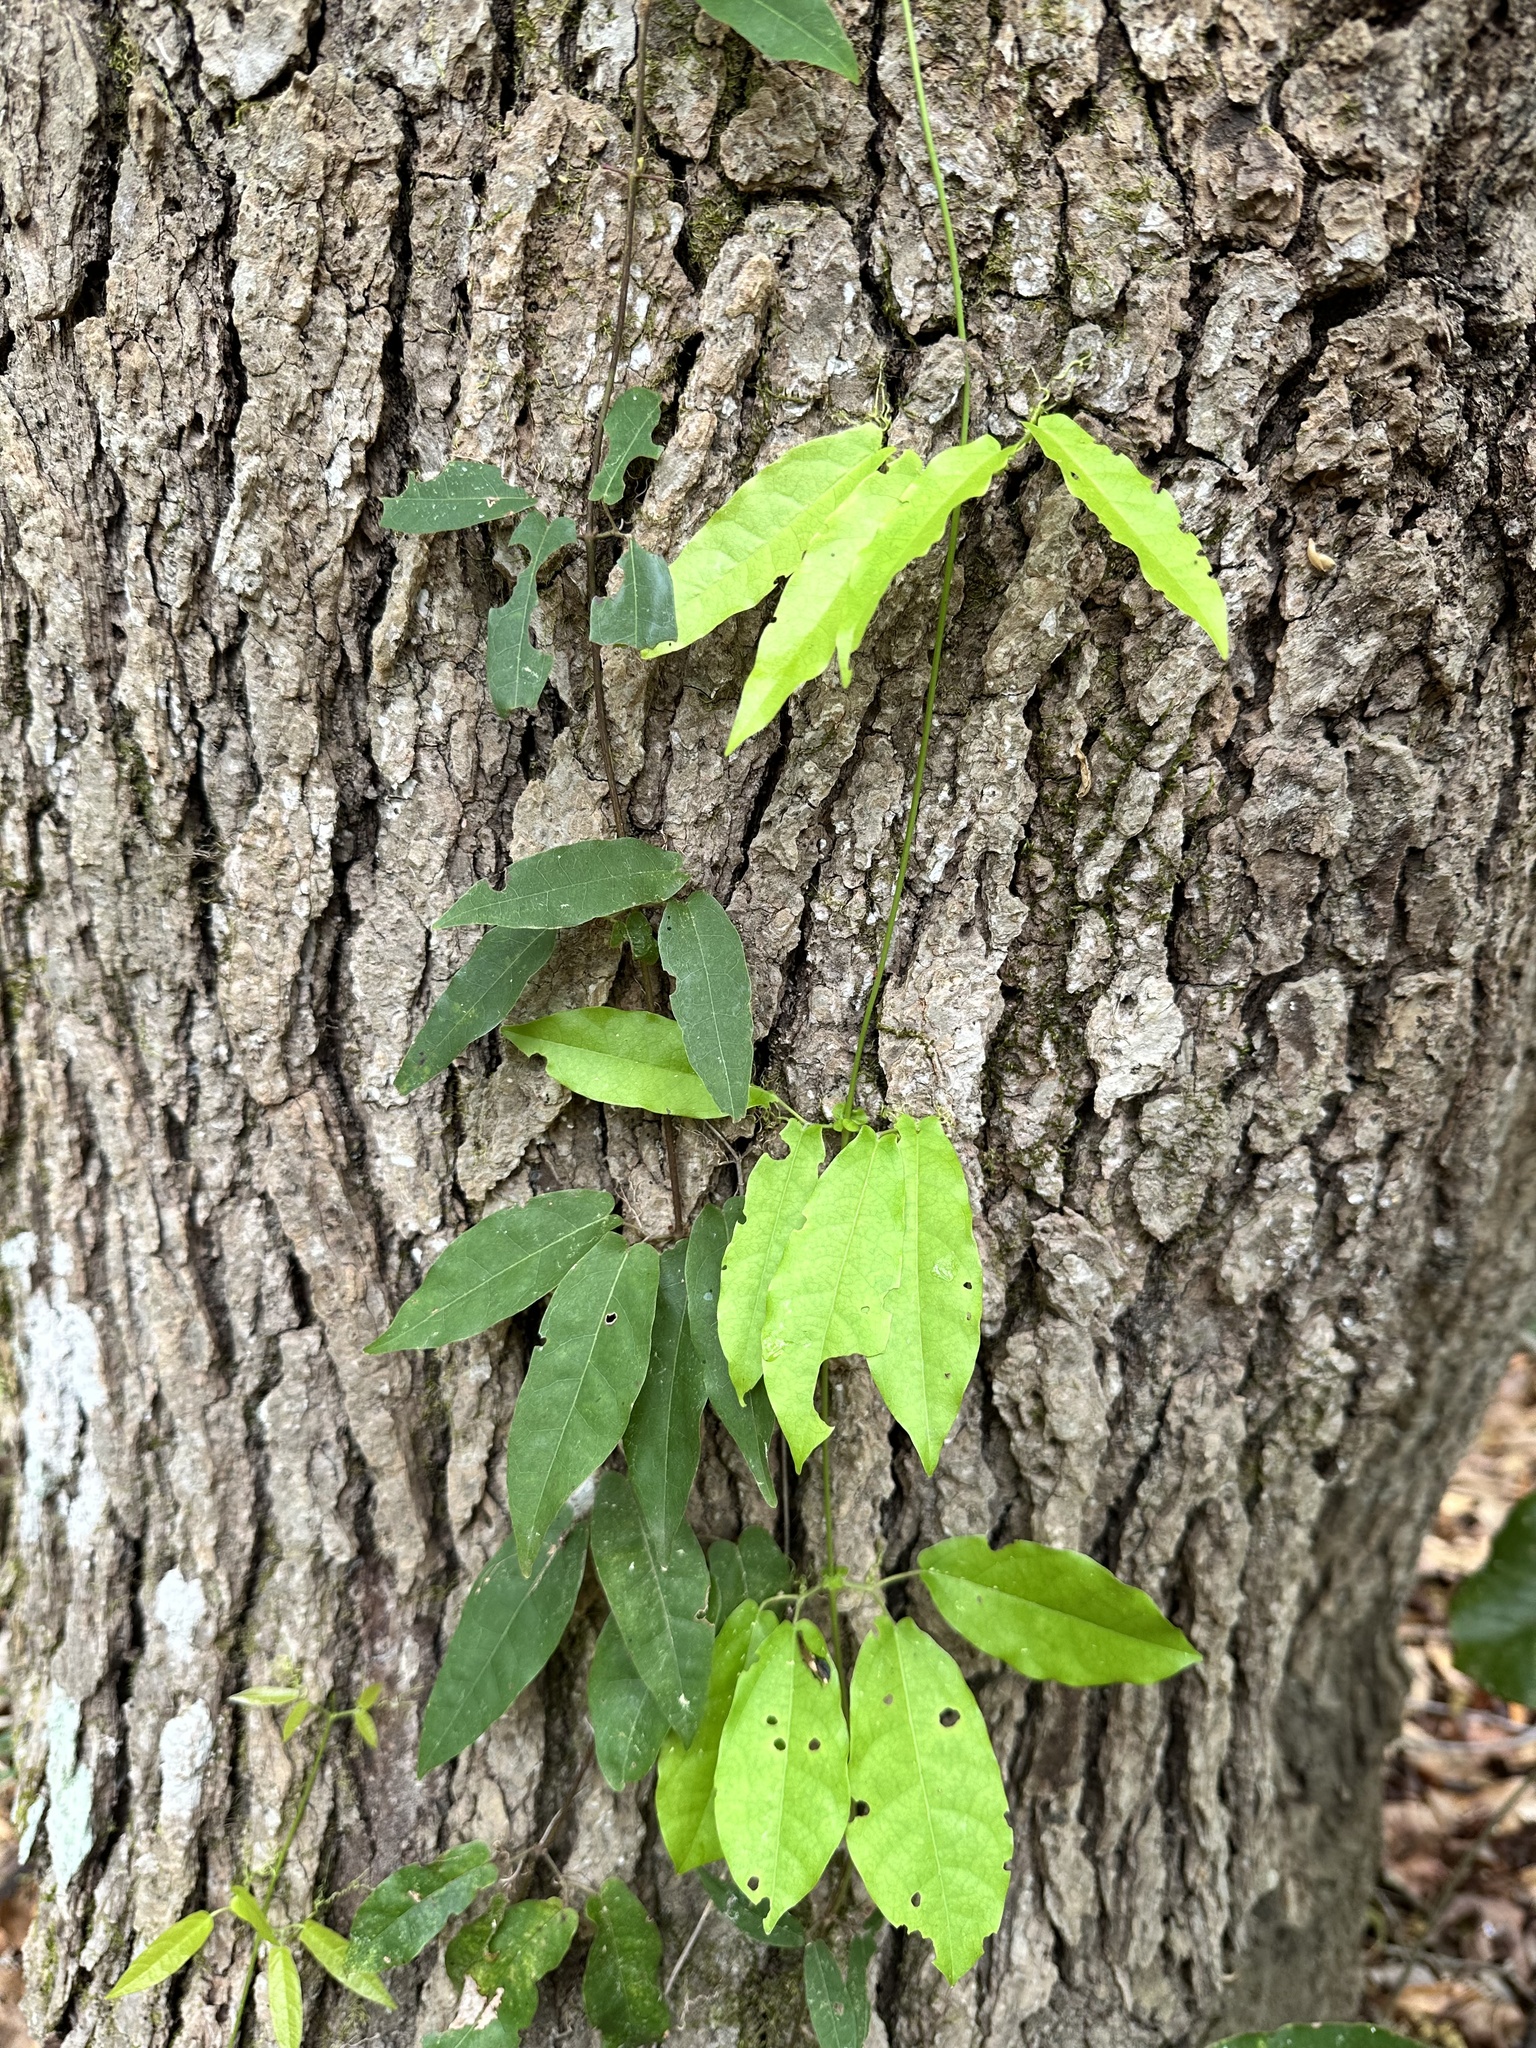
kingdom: Plantae
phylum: Tracheophyta
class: Magnoliopsida
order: Lamiales
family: Bignoniaceae
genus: Bignonia
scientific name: Bignonia capreolata
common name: Crossvine
